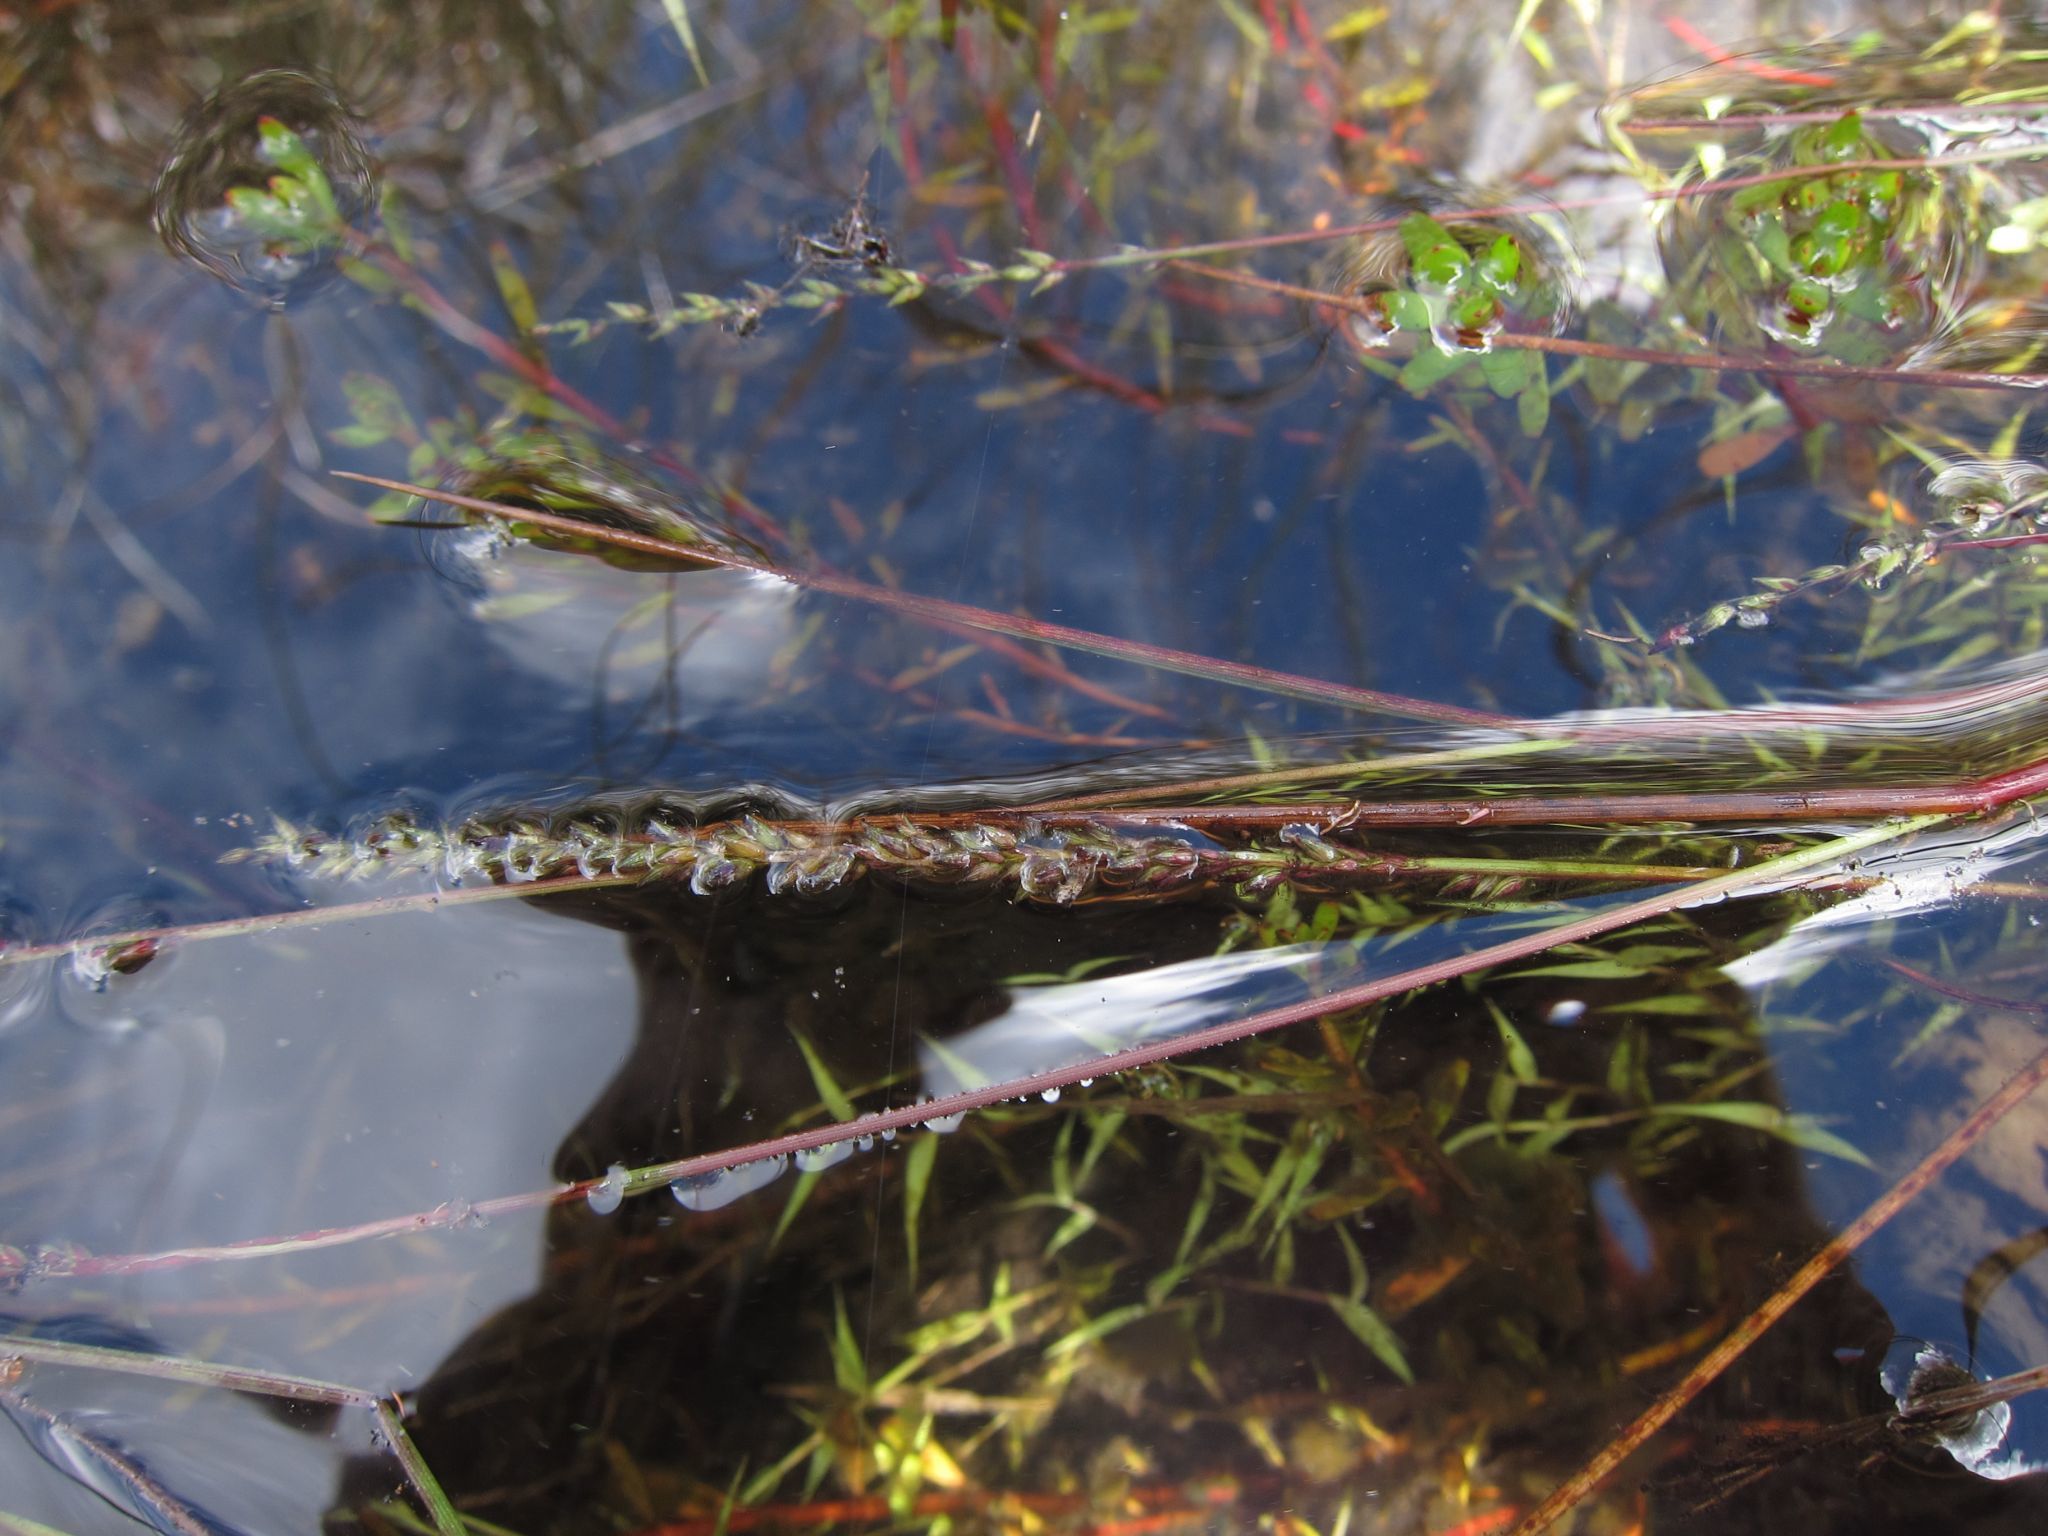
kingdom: Plantae
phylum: Tracheophyta
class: Liliopsida
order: Poales
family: Poaceae
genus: Sacciolepis
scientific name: Sacciolepis viguieri
